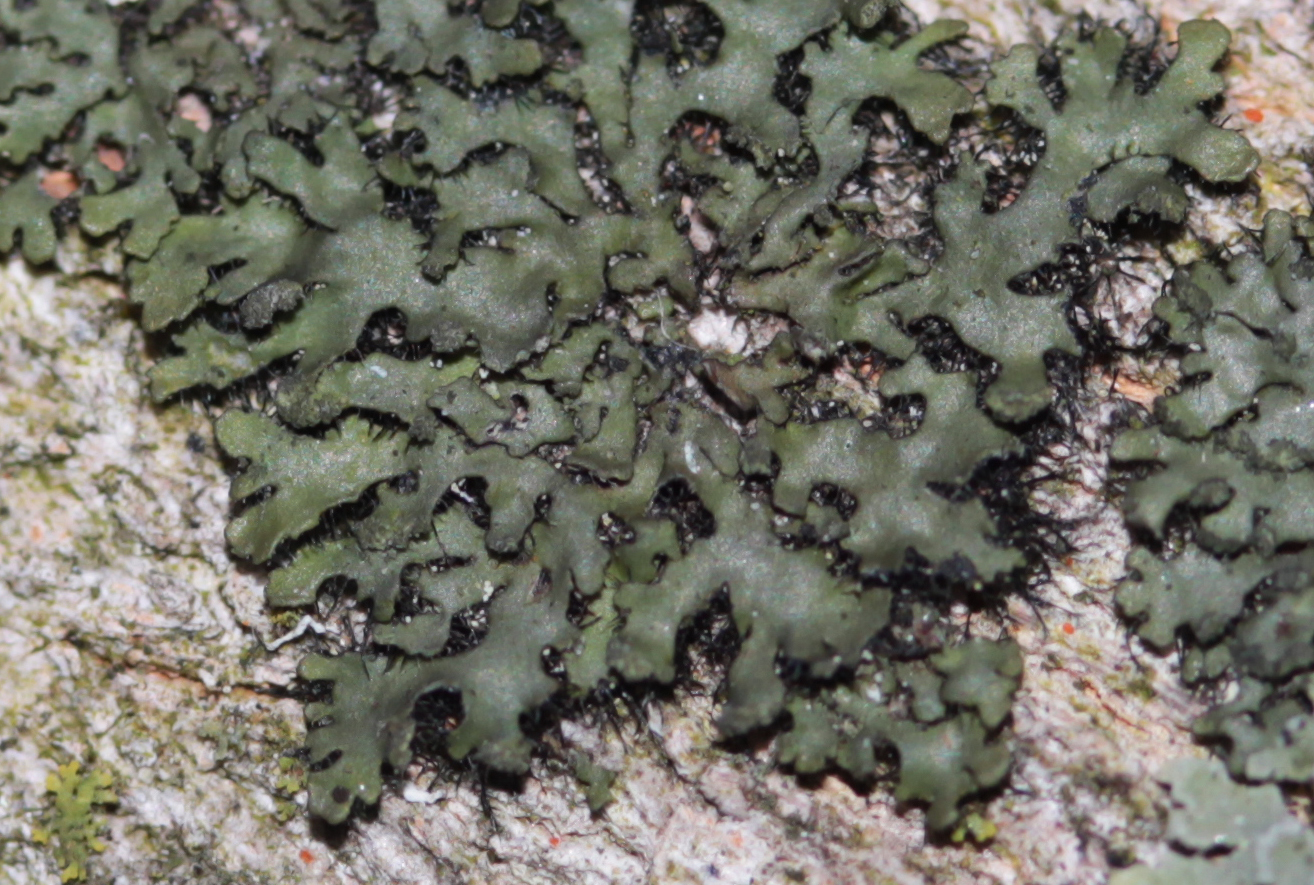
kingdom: Fungi
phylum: Ascomycota
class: Lecanoromycetes
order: Caliciales
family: Physciaceae
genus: Phaeophyscia
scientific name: Phaeophyscia rubropulchra
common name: Orange-cored shadow lichen
